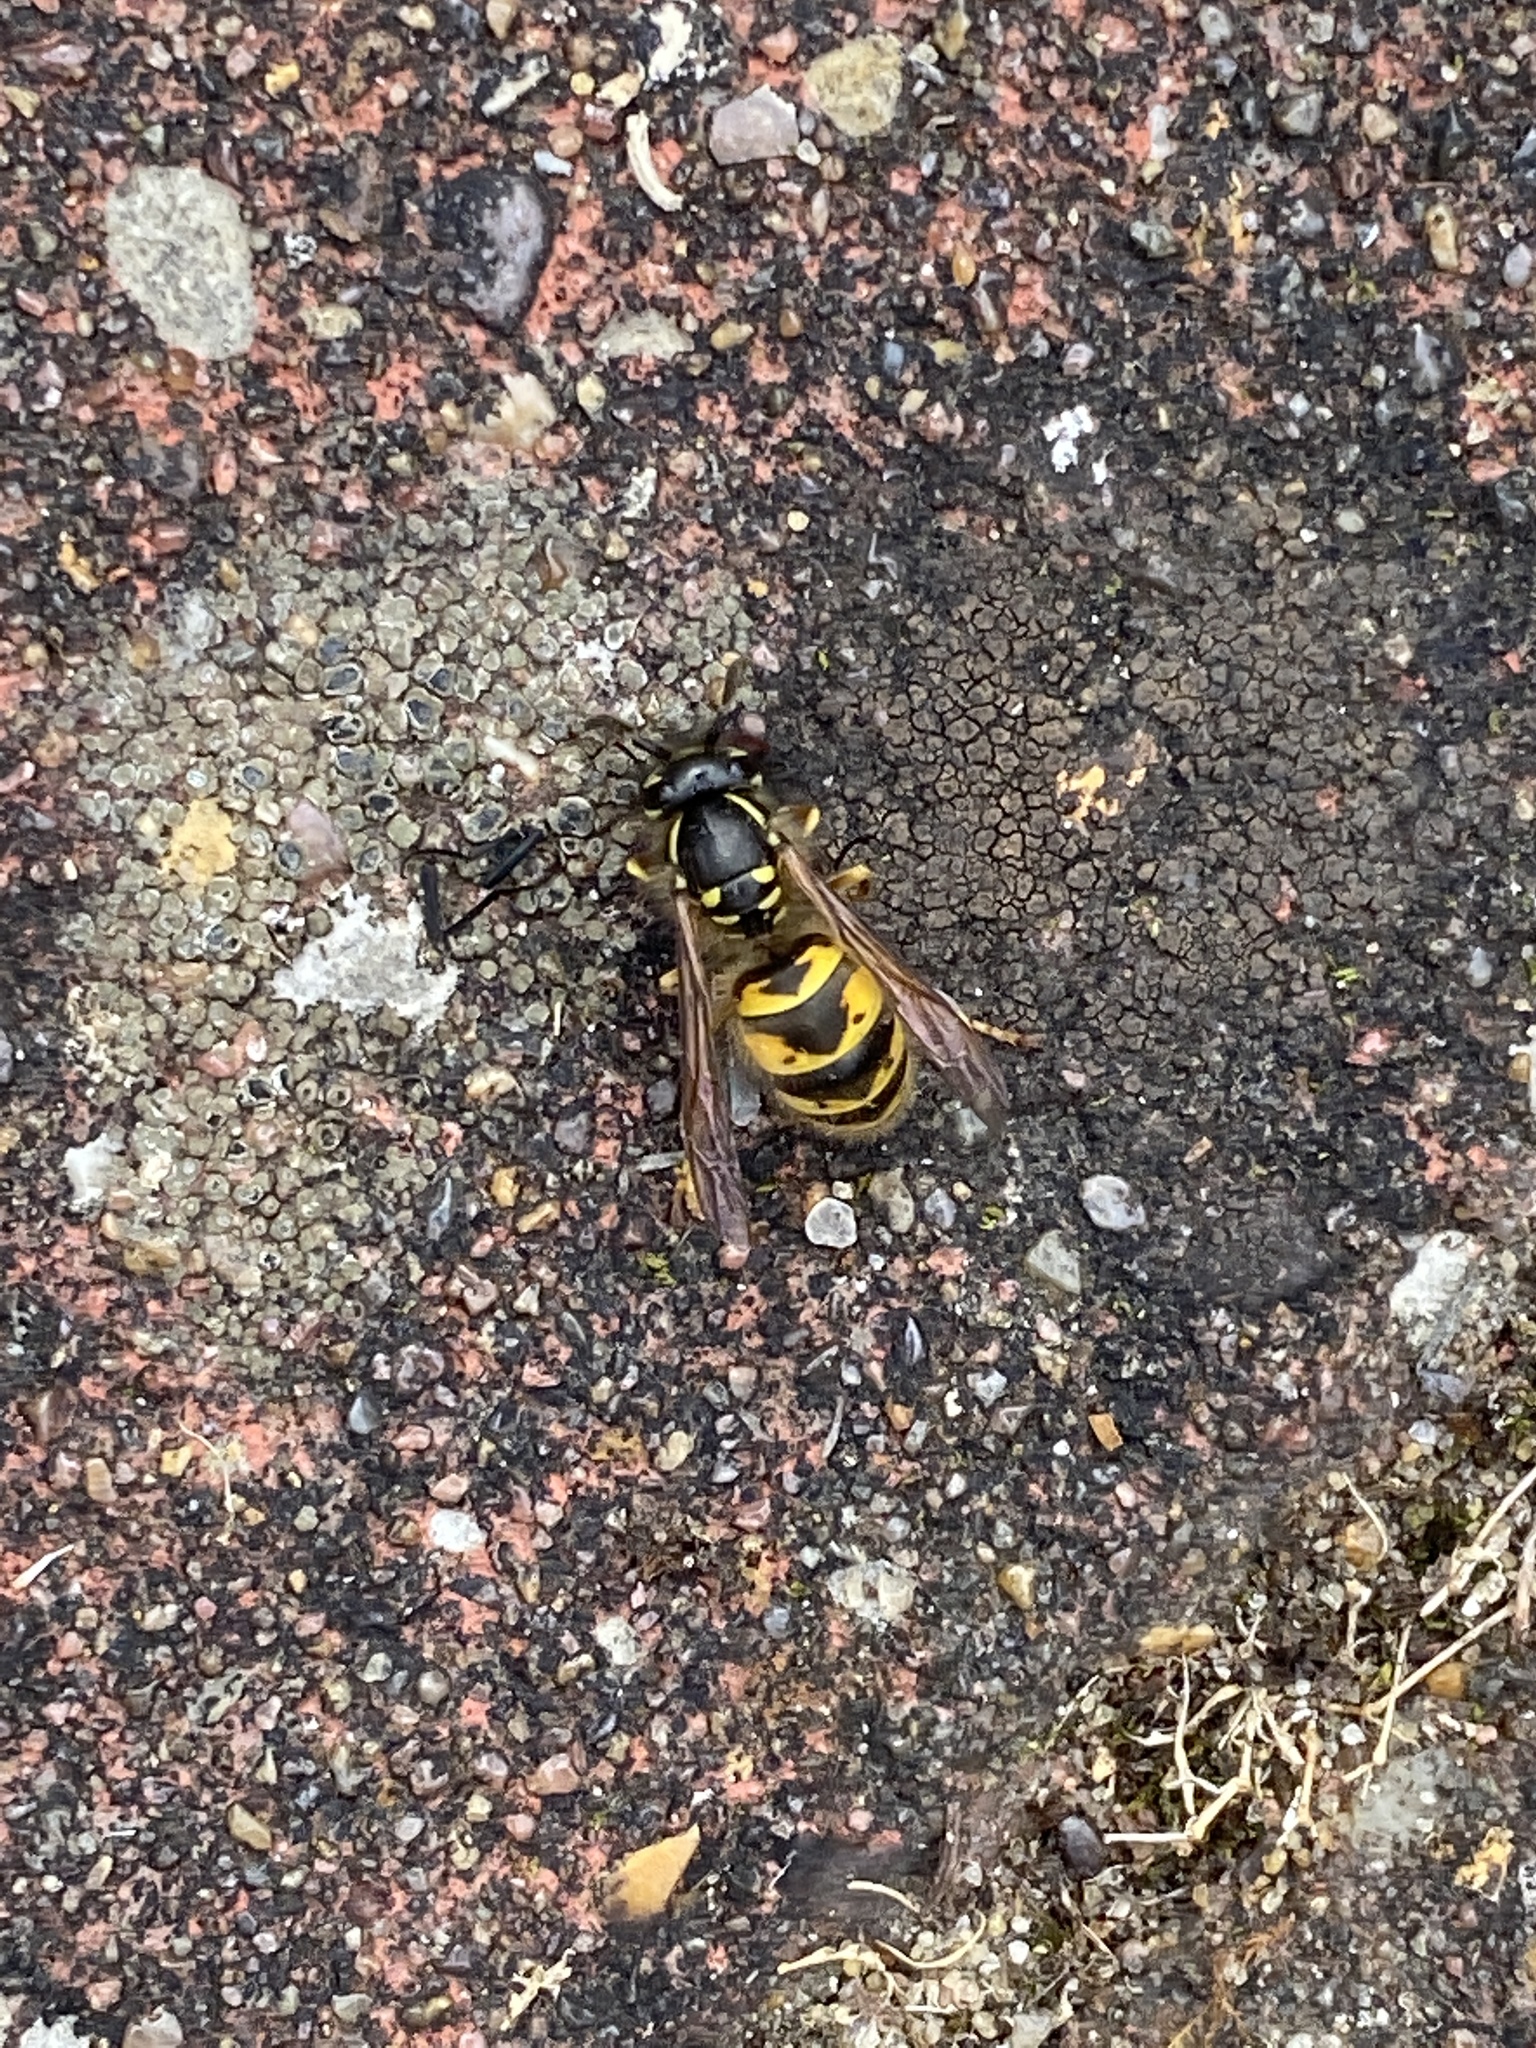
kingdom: Animalia
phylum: Arthropoda
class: Insecta
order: Hymenoptera
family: Vespidae
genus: Vespula
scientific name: Vespula vulgaris
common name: Common wasp
